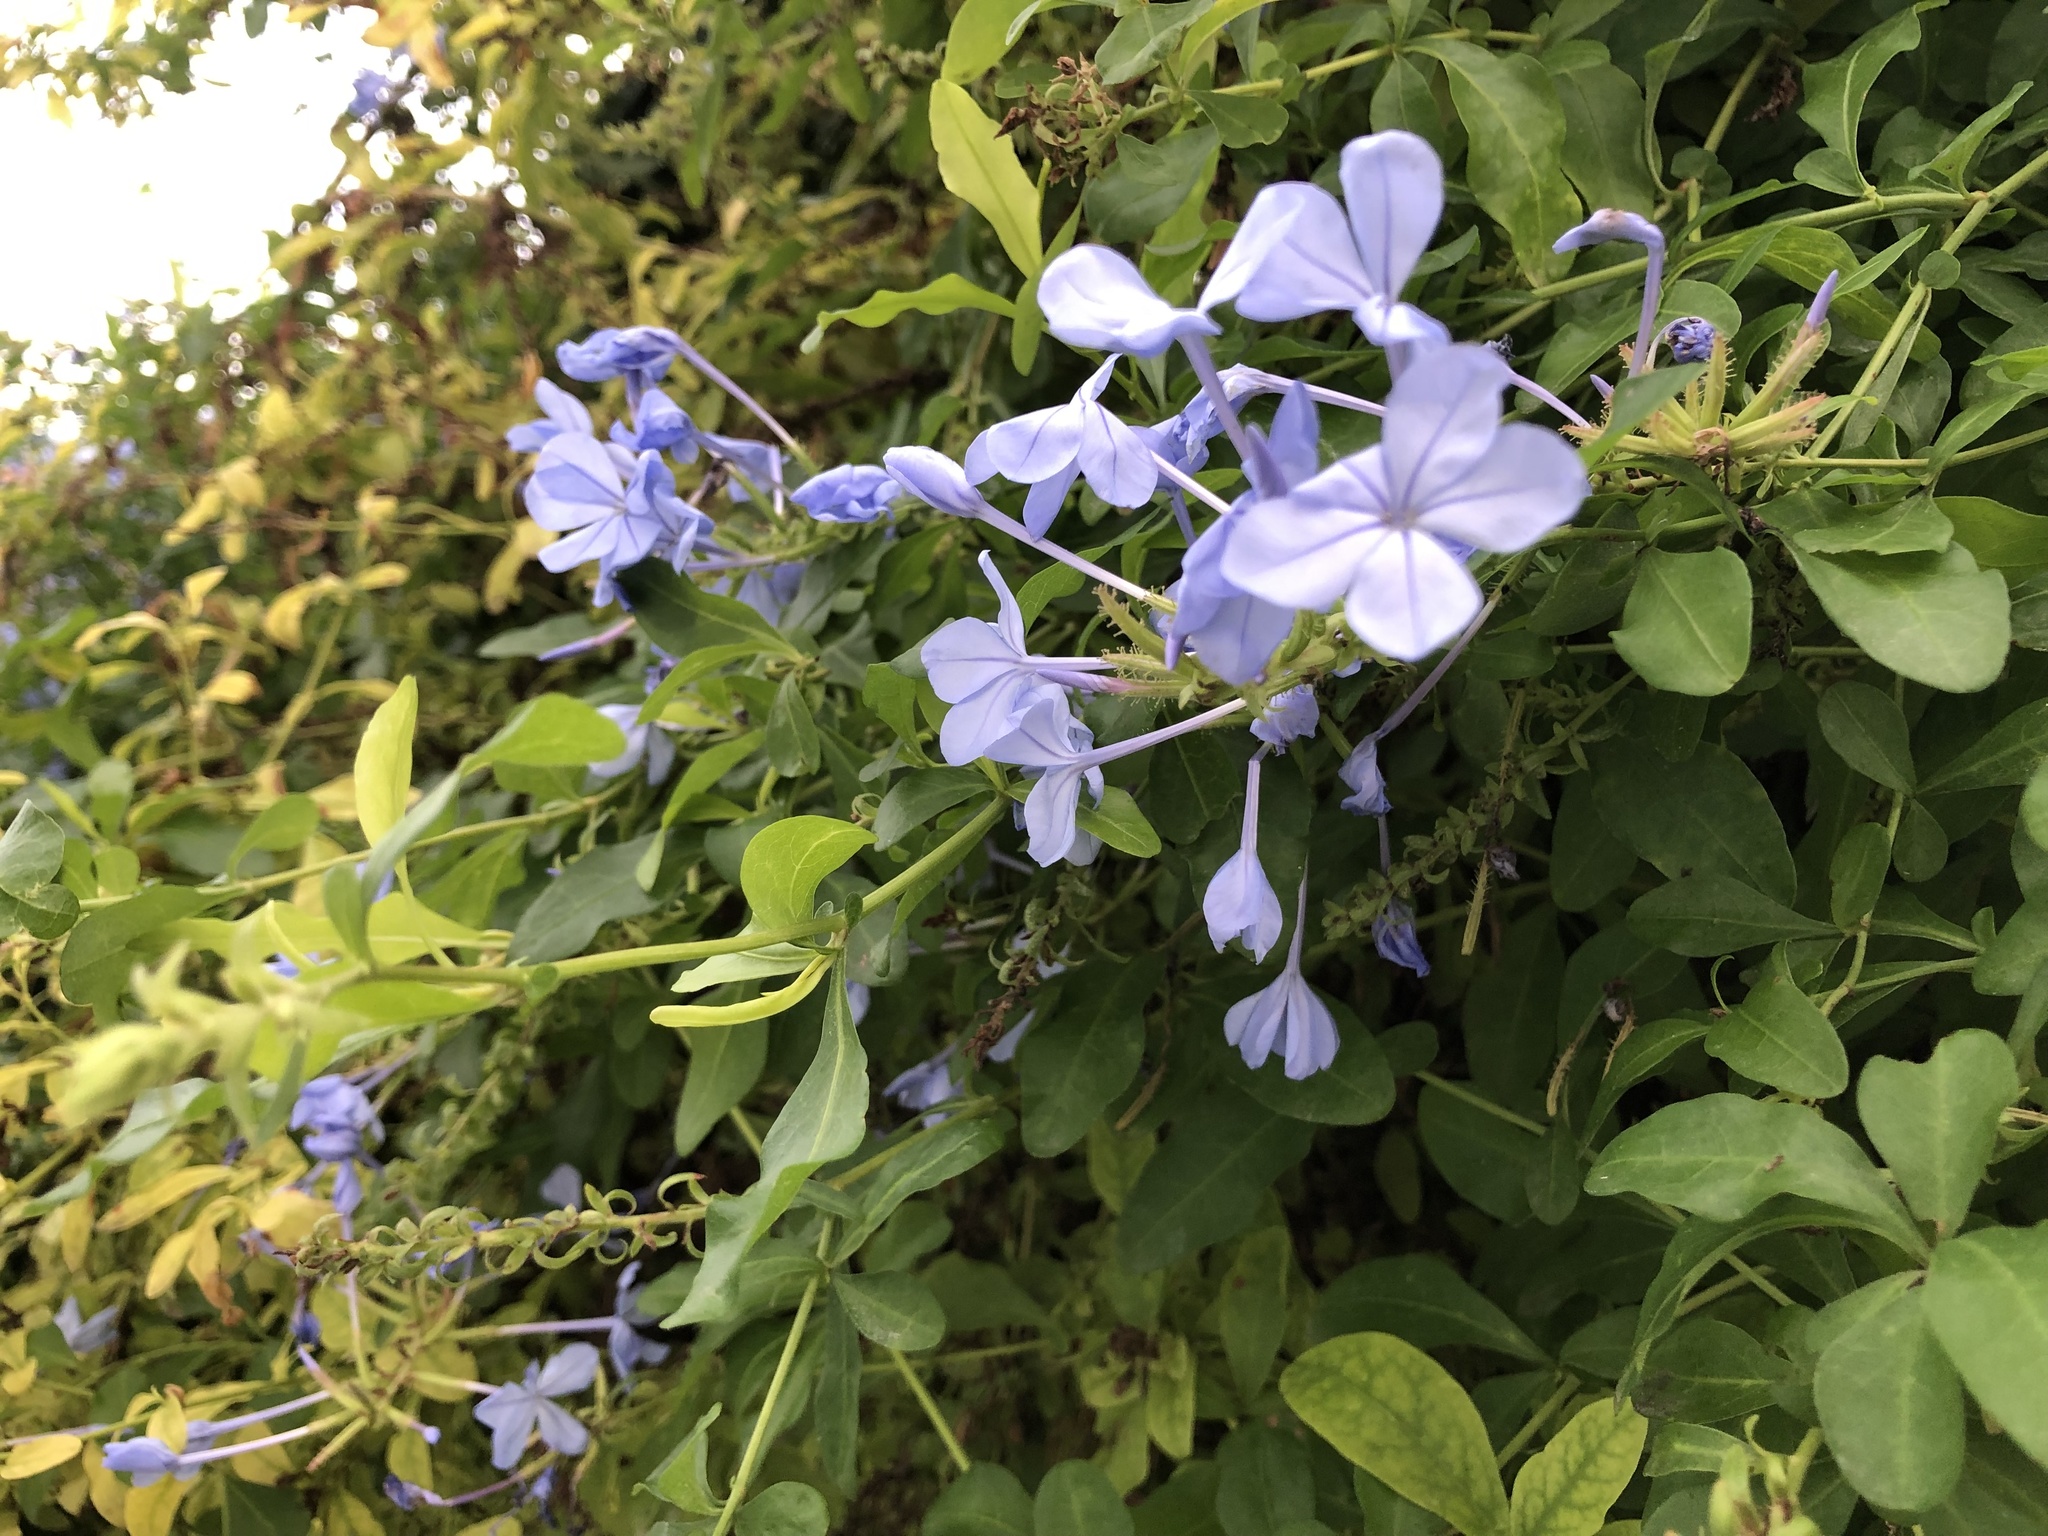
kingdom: Plantae
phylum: Tracheophyta
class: Magnoliopsida
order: Caryophyllales
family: Plumbaginaceae
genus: Plumbago
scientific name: Plumbago auriculata
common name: Cape leadwort
